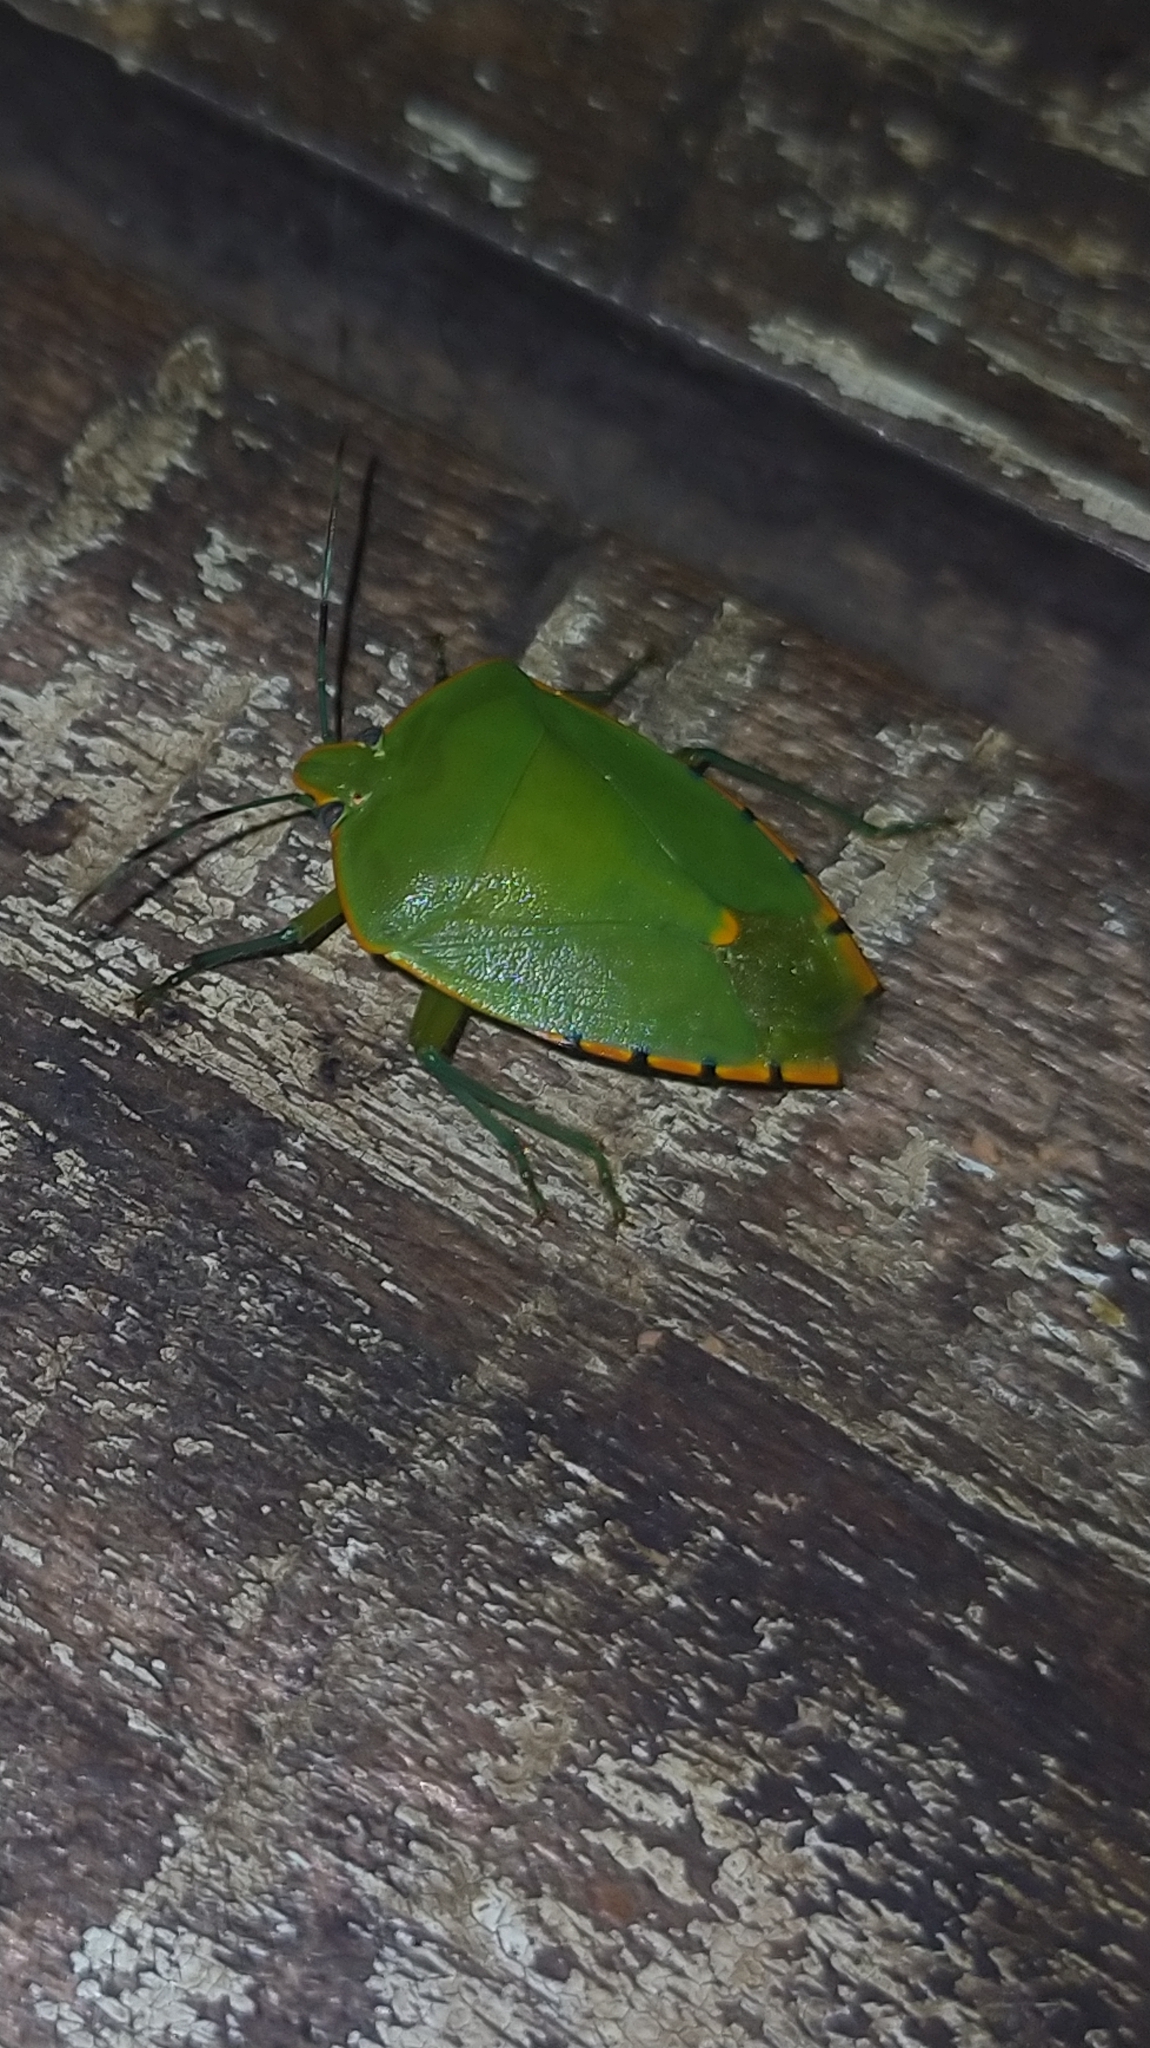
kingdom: Animalia
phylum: Arthropoda
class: Insecta
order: Hemiptera
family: Pentatomidae
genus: Chinavia
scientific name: Chinavia runaspis
